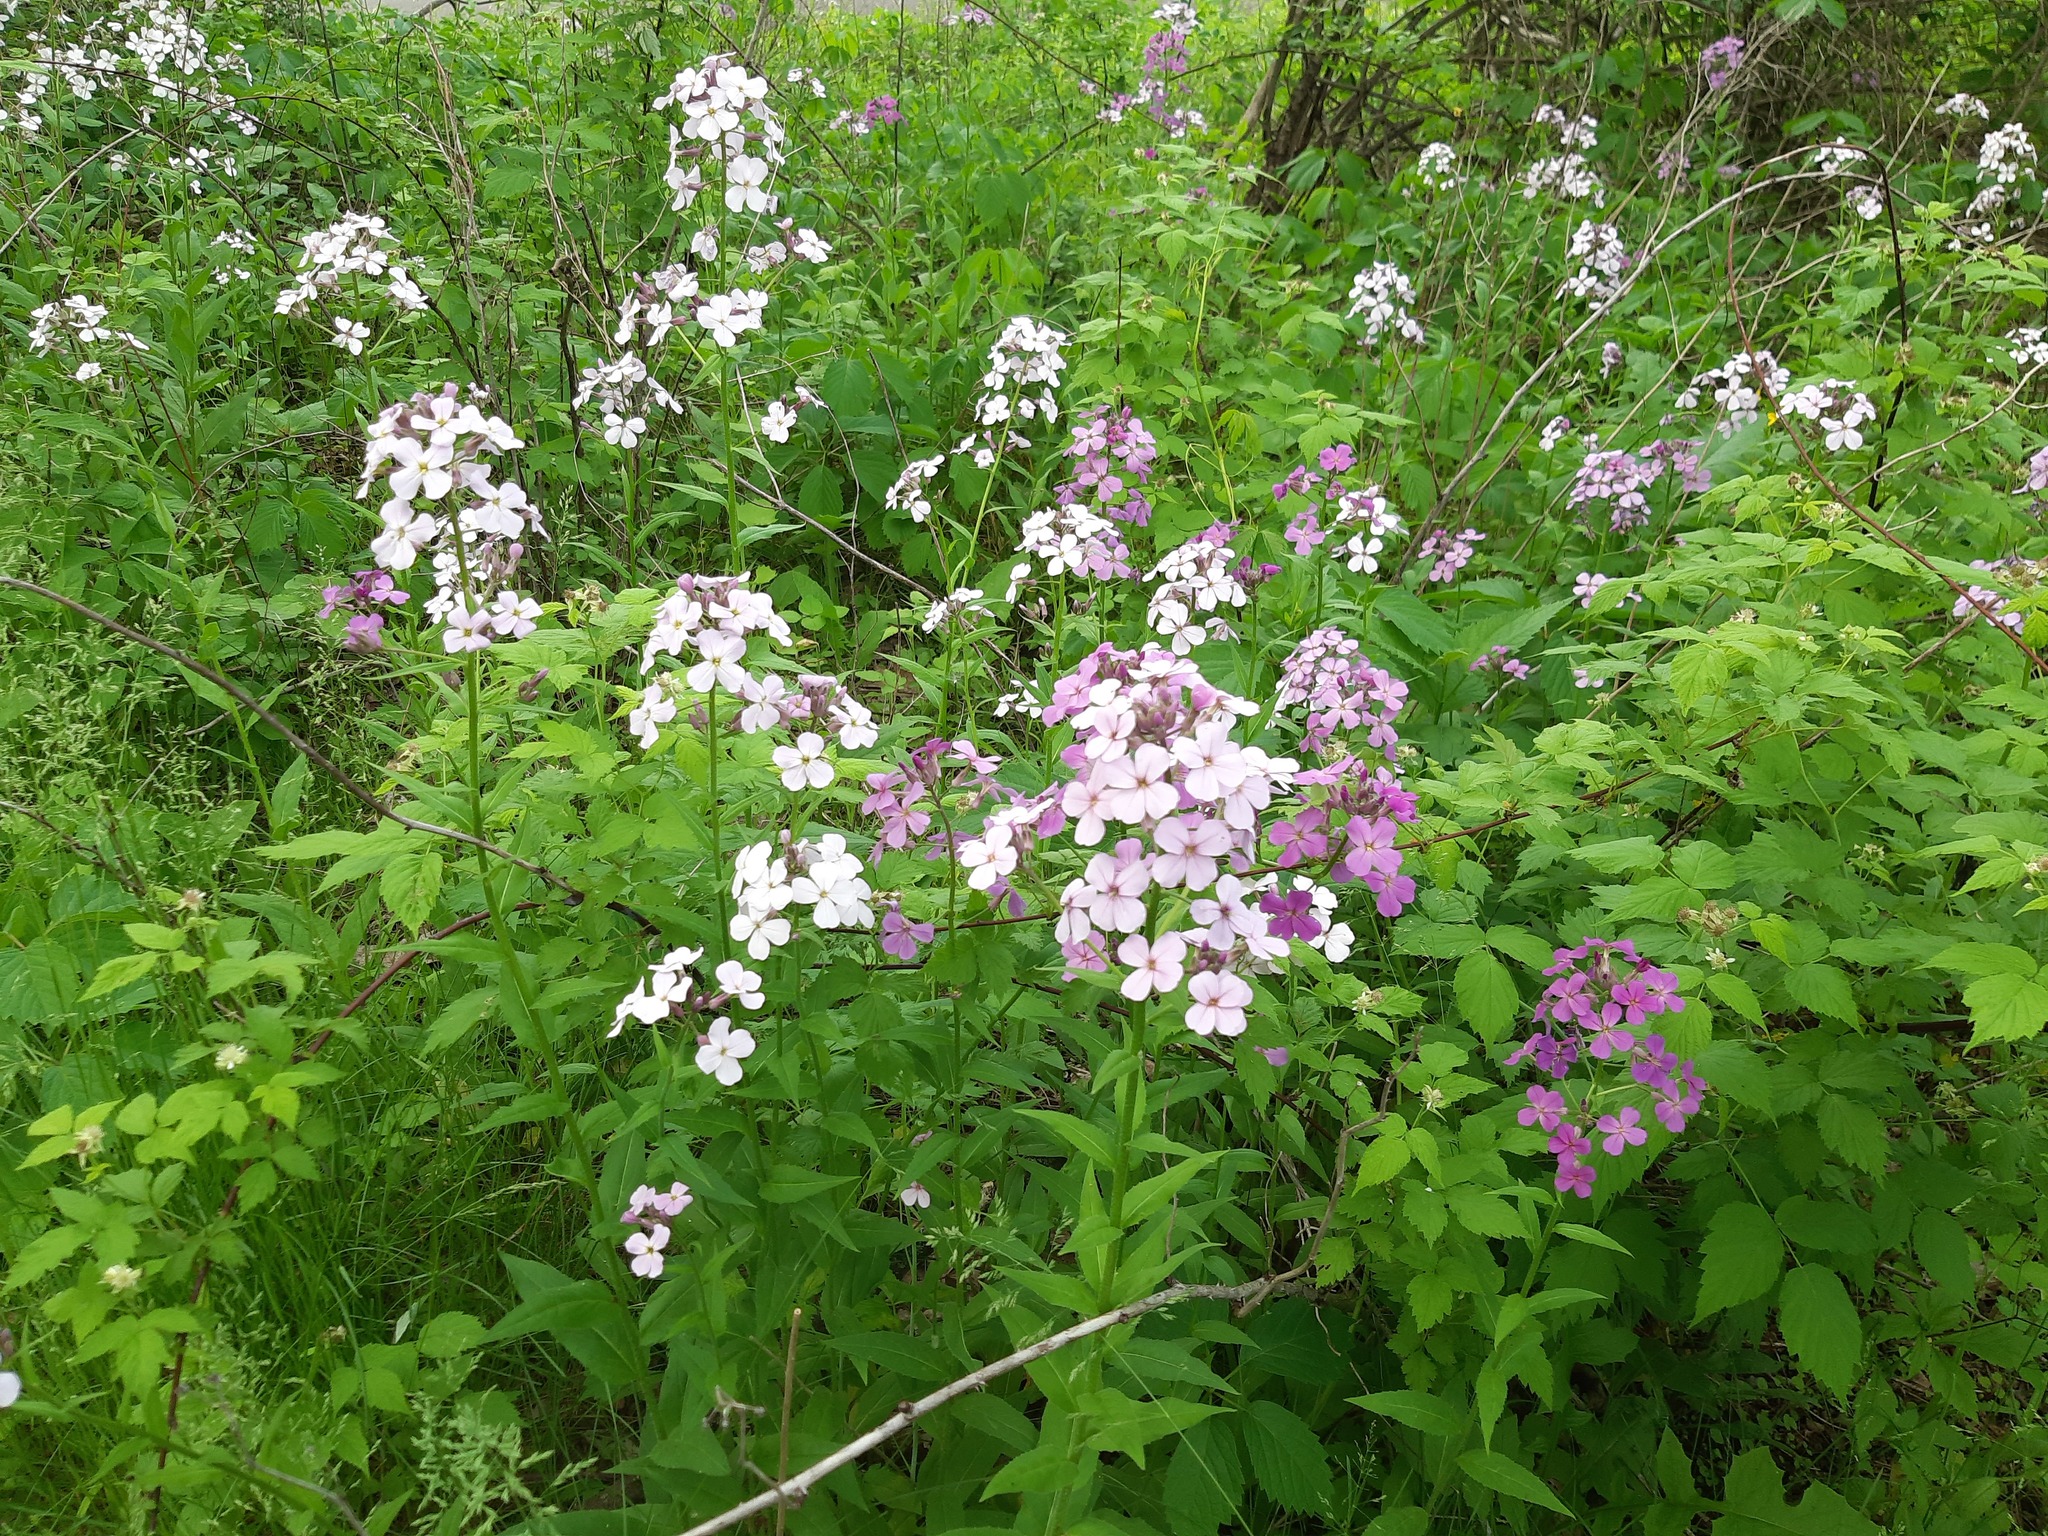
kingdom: Plantae
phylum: Tracheophyta
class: Magnoliopsida
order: Brassicales
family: Brassicaceae
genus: Hesperis
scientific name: Hesperis matronalis
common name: Dame's-violet
